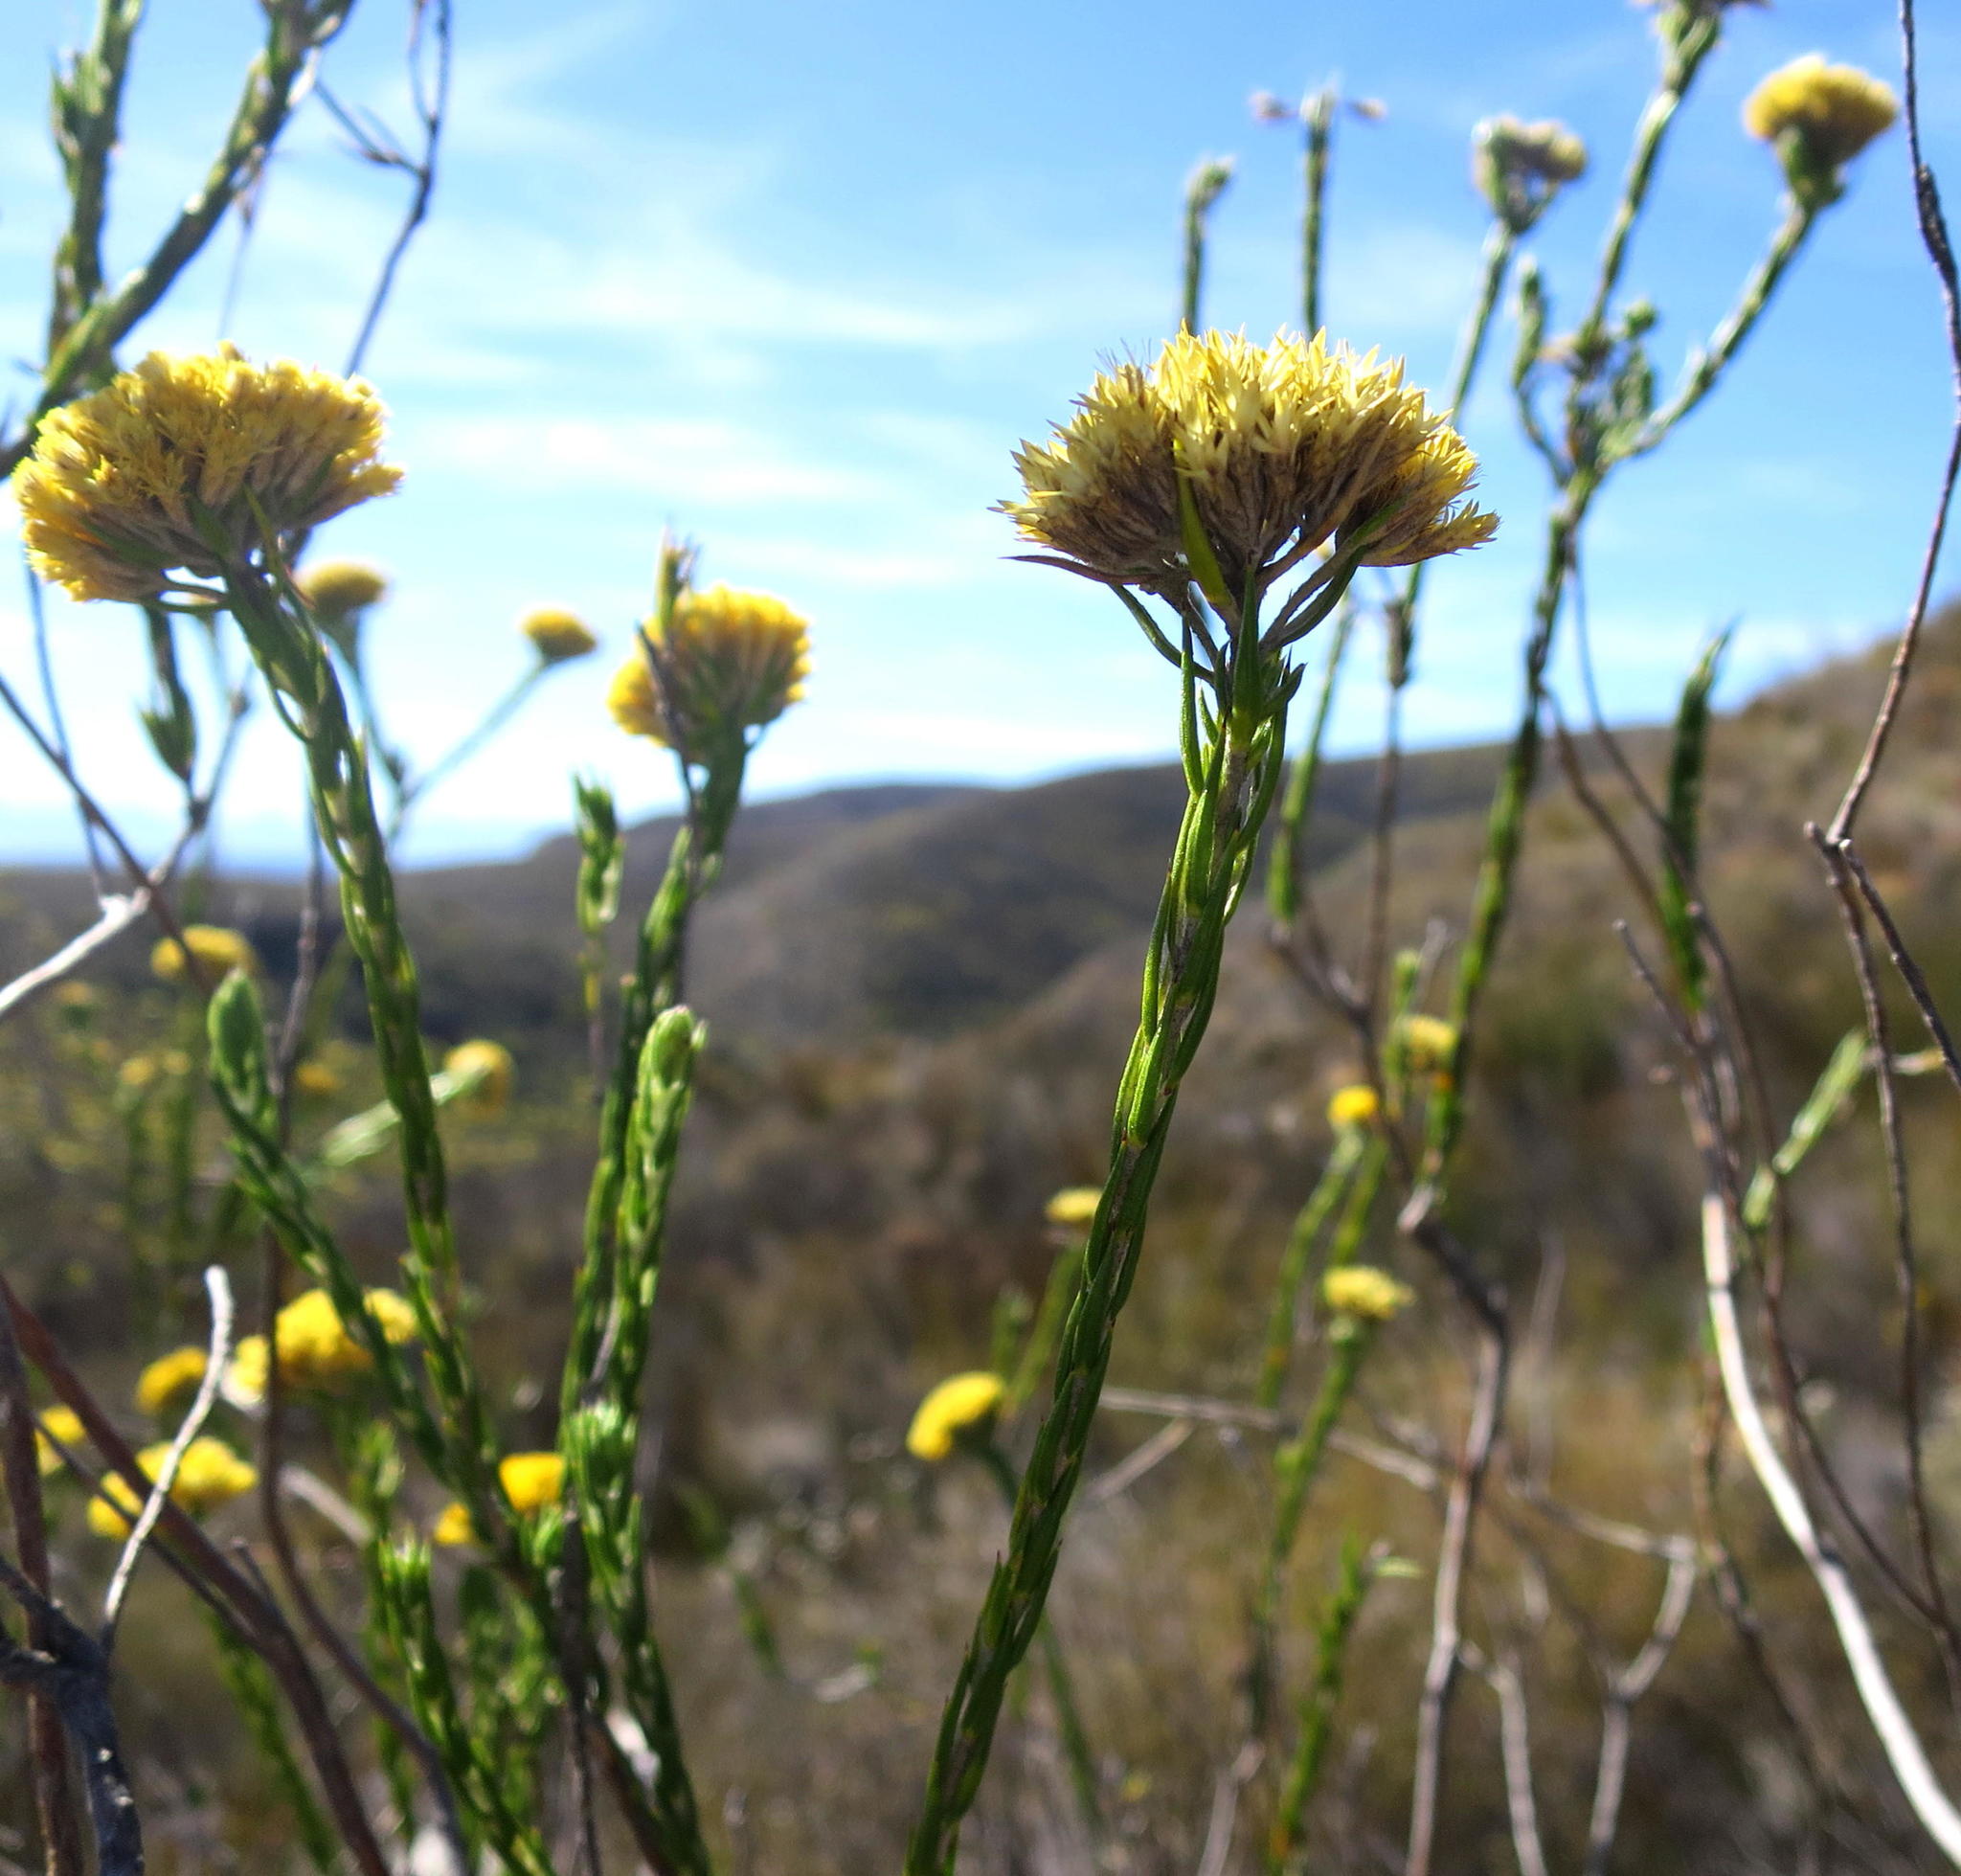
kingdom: Plantae
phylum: Tracheophyta
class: Magnoliopsida
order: Asterales
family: Asteraceae
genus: Metalasia
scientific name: Metalasia pulcherrima
